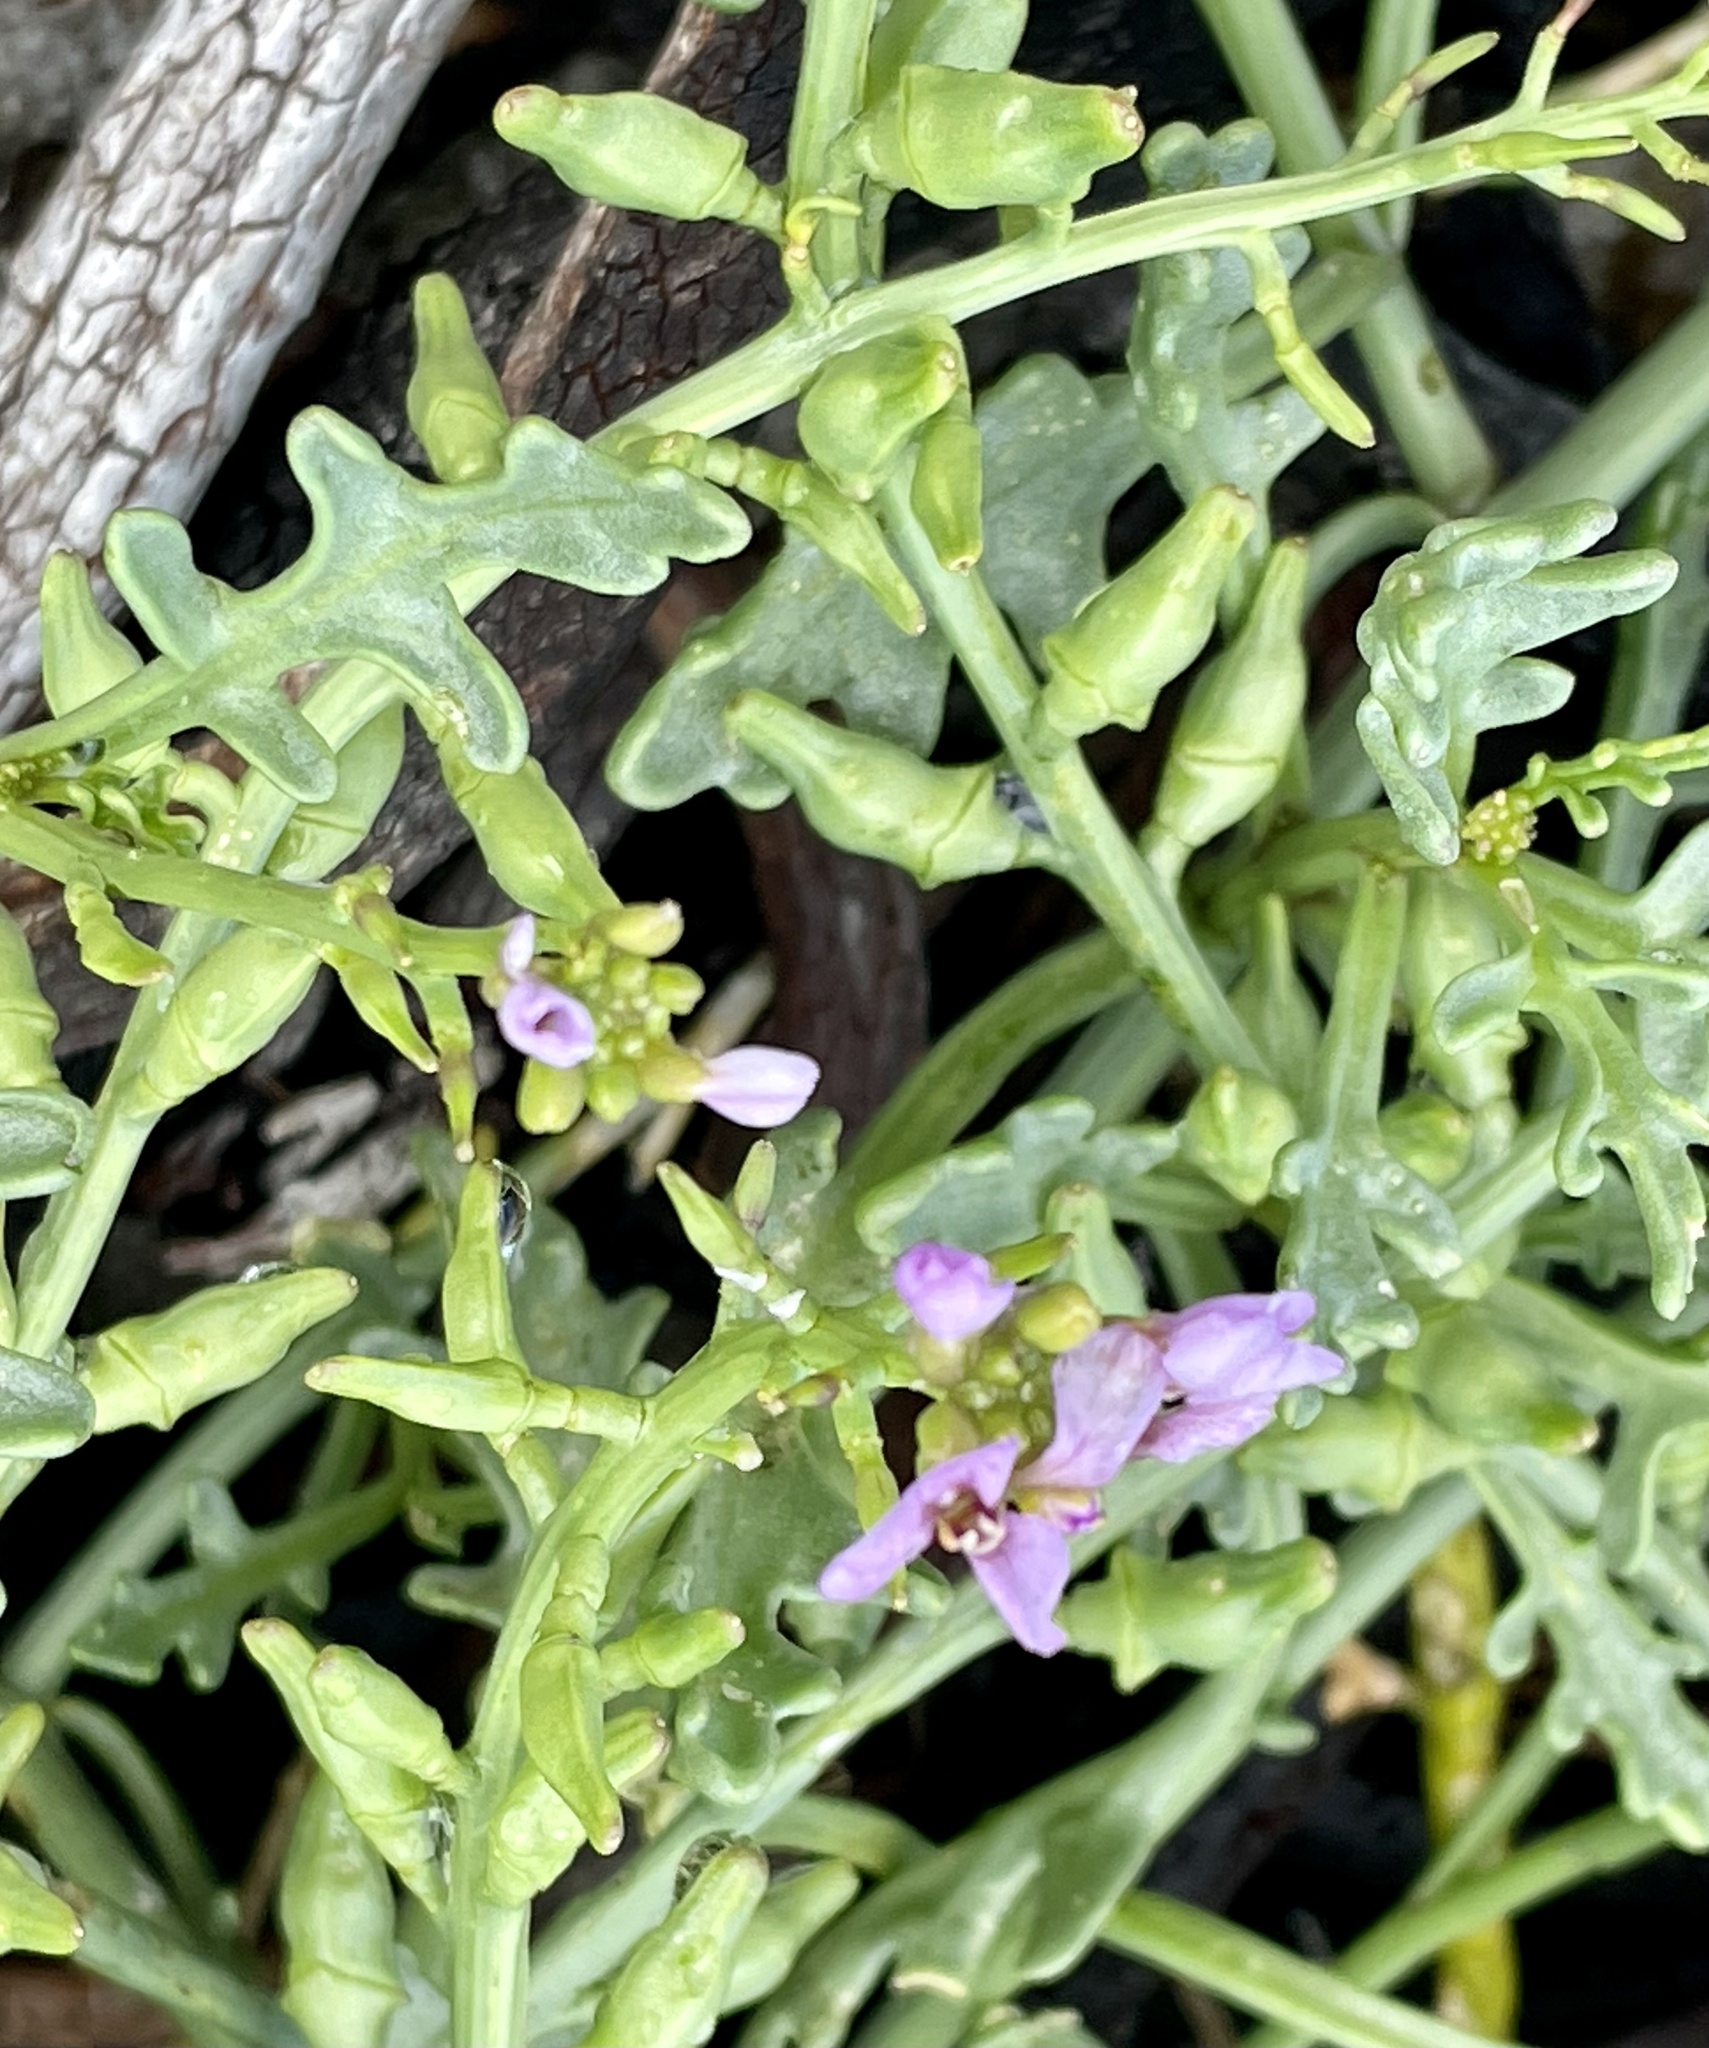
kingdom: Plantae
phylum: Tracheophyta
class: Magnoliopsida
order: Brassicales
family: Brassicaceae
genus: Cakile
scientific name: Cakile maritima
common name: Sea rocket
